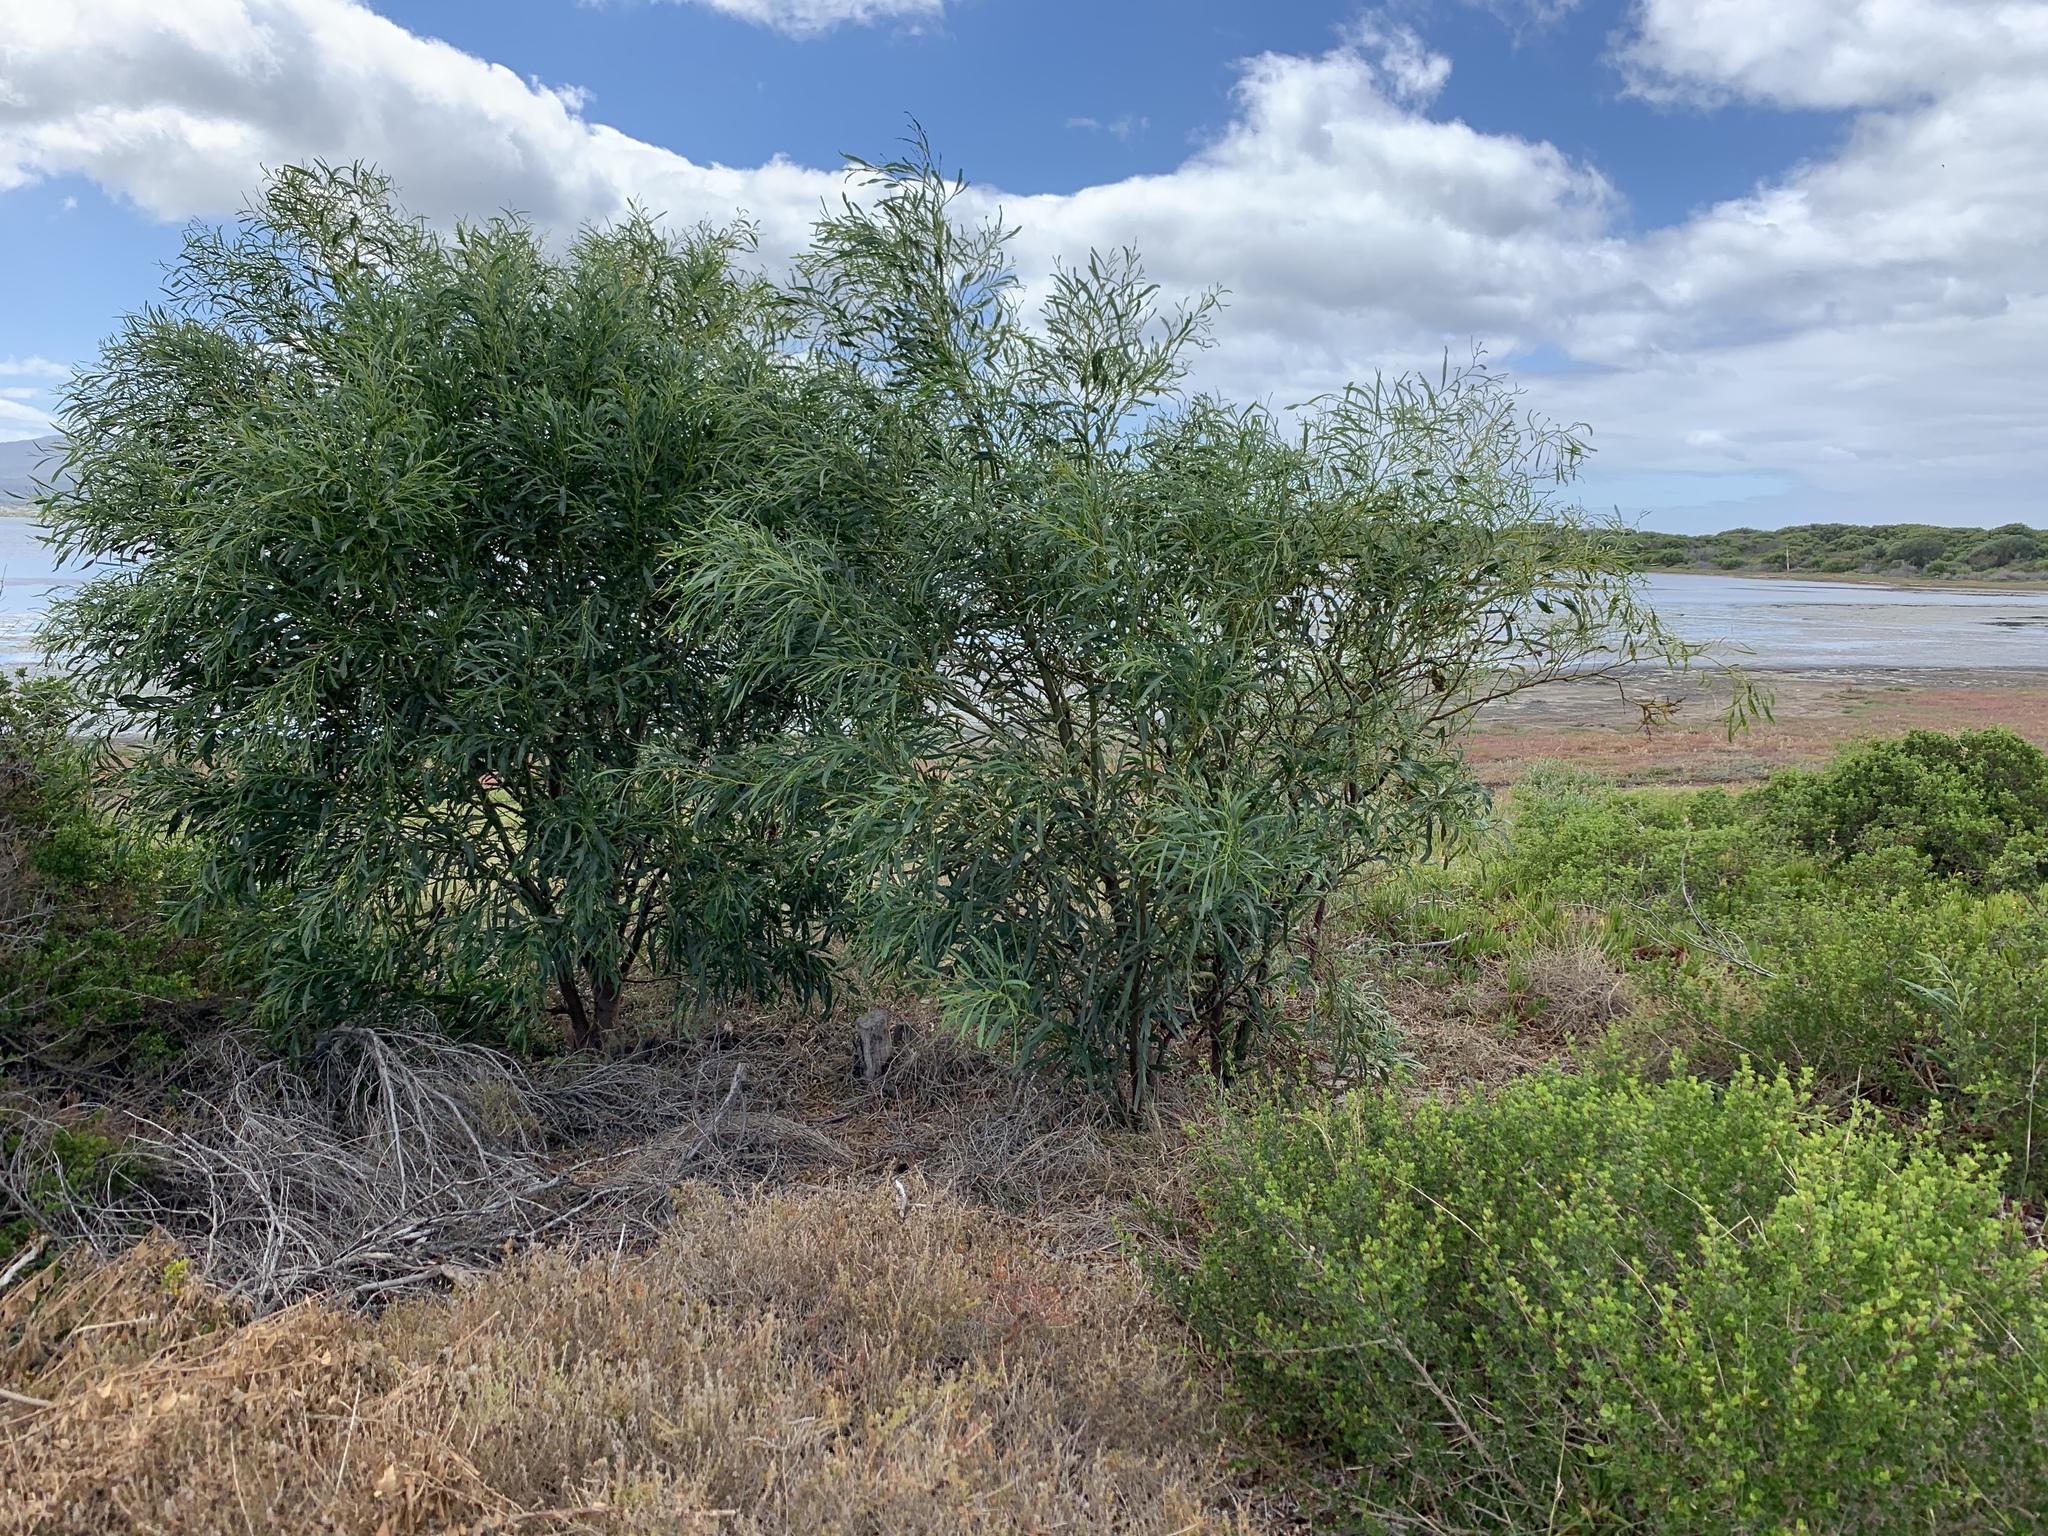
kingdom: Plantae
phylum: Tracheophyta
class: Magnoliopsida
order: Fabales
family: Fabaceae
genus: Acacia
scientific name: Acacia saligna
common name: Orange wattle
